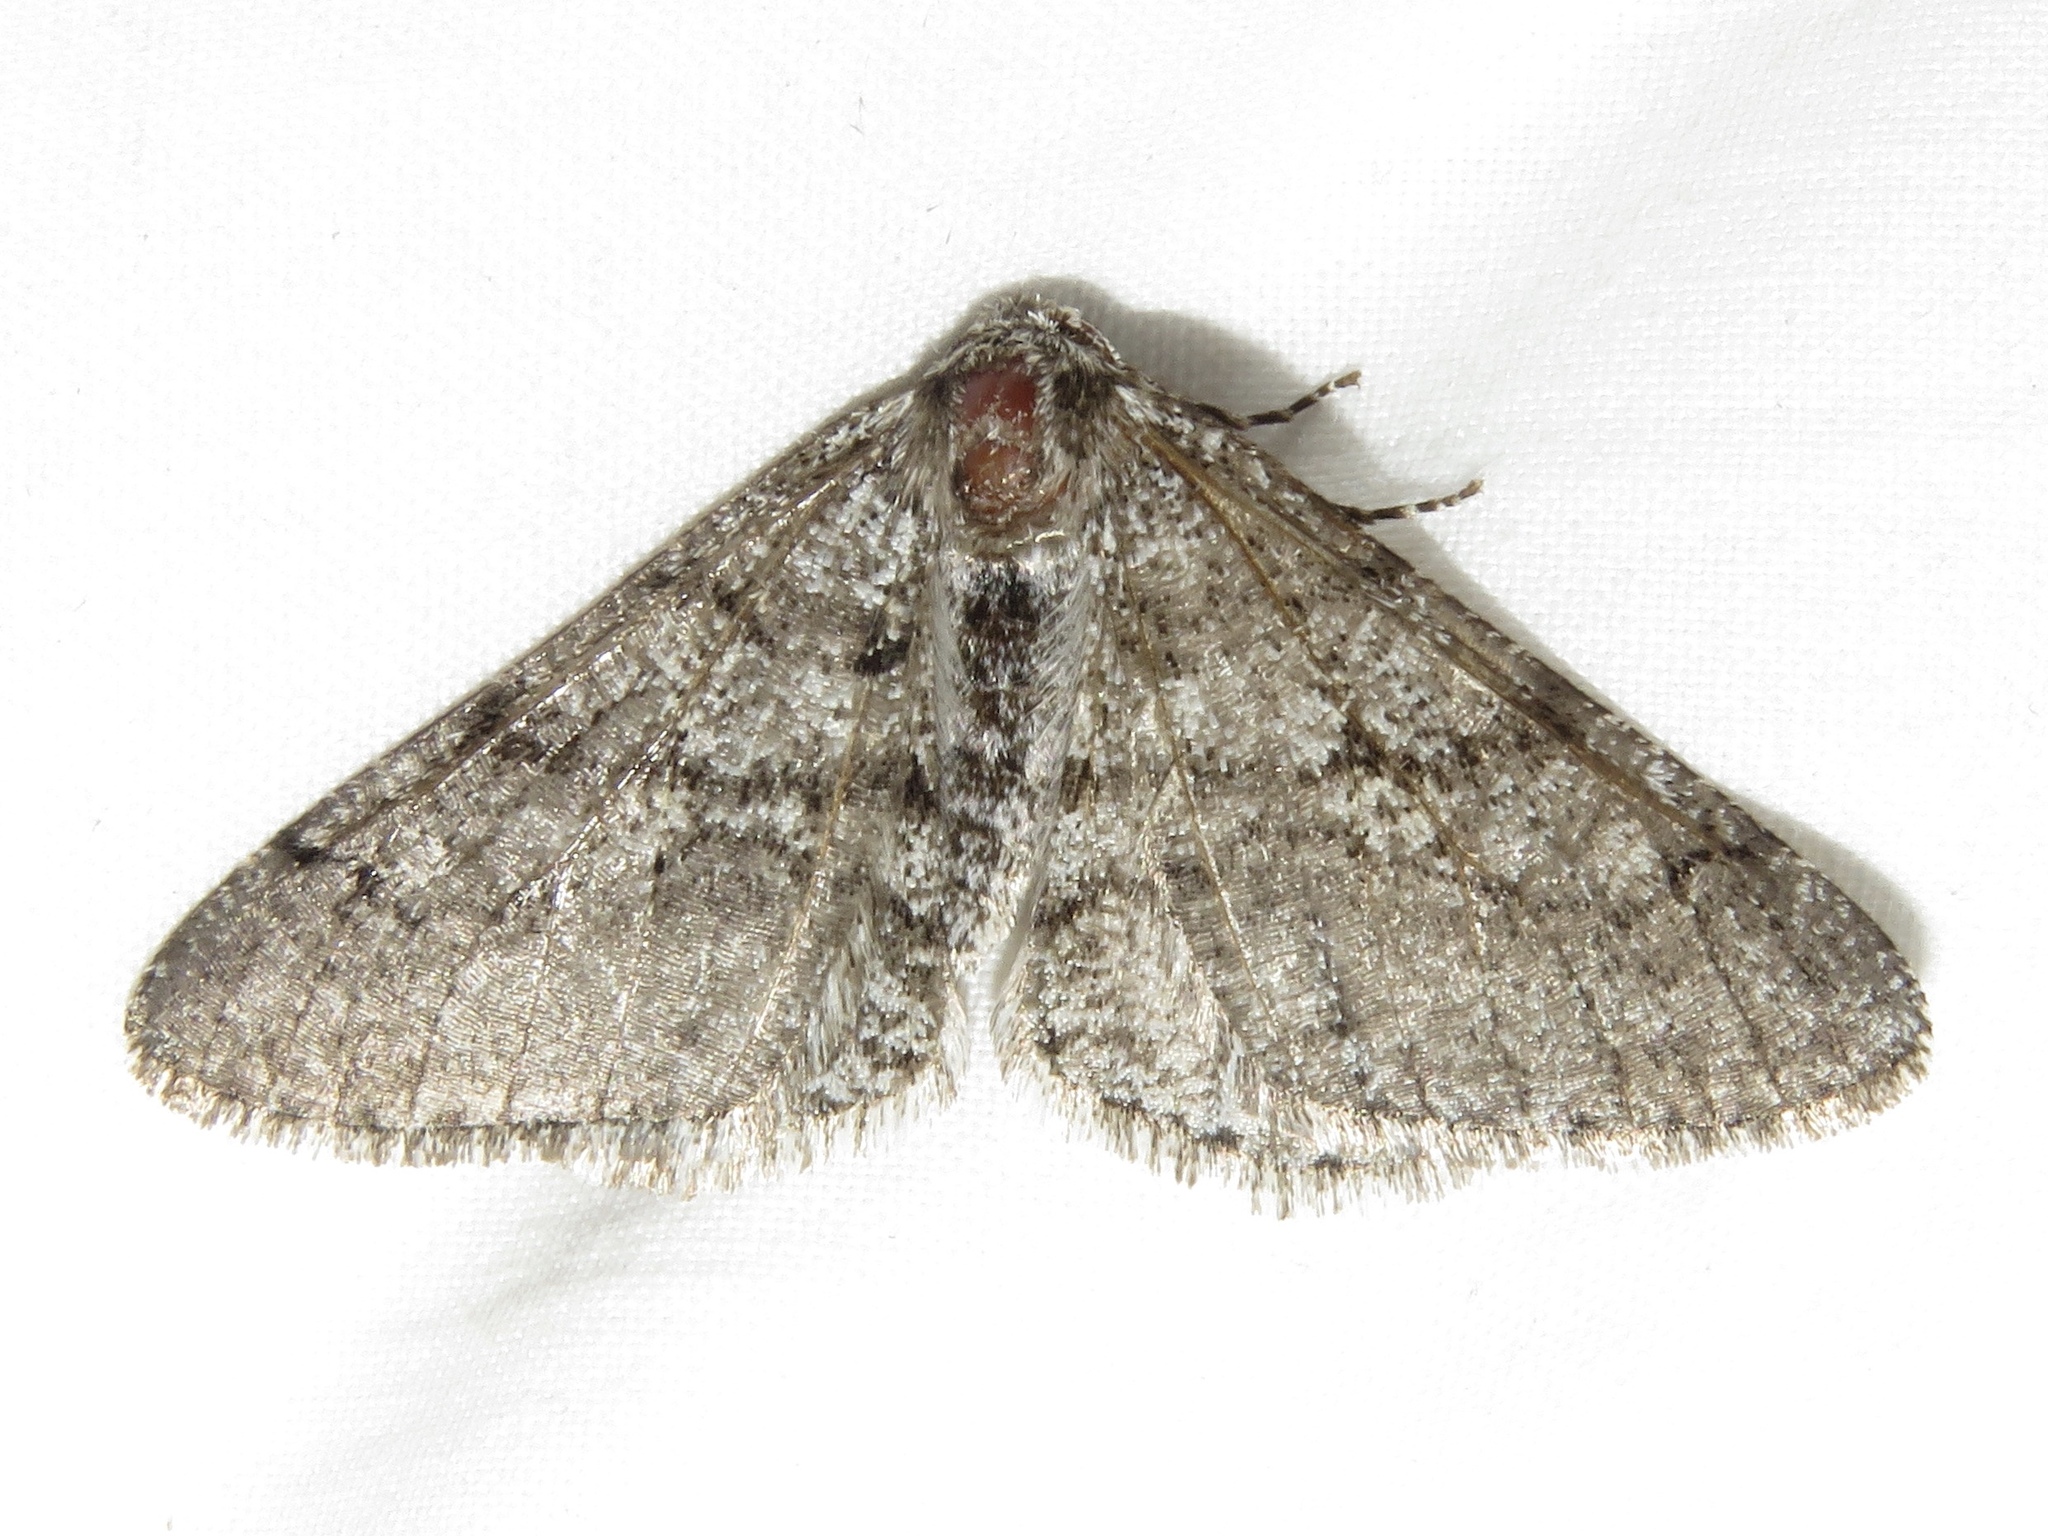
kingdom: Animalia
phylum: Arthropoda
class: Insecta
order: Lepidoptera
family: Geometridae
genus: Phigalia
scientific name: Phigalia titea
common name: Spiny looper
